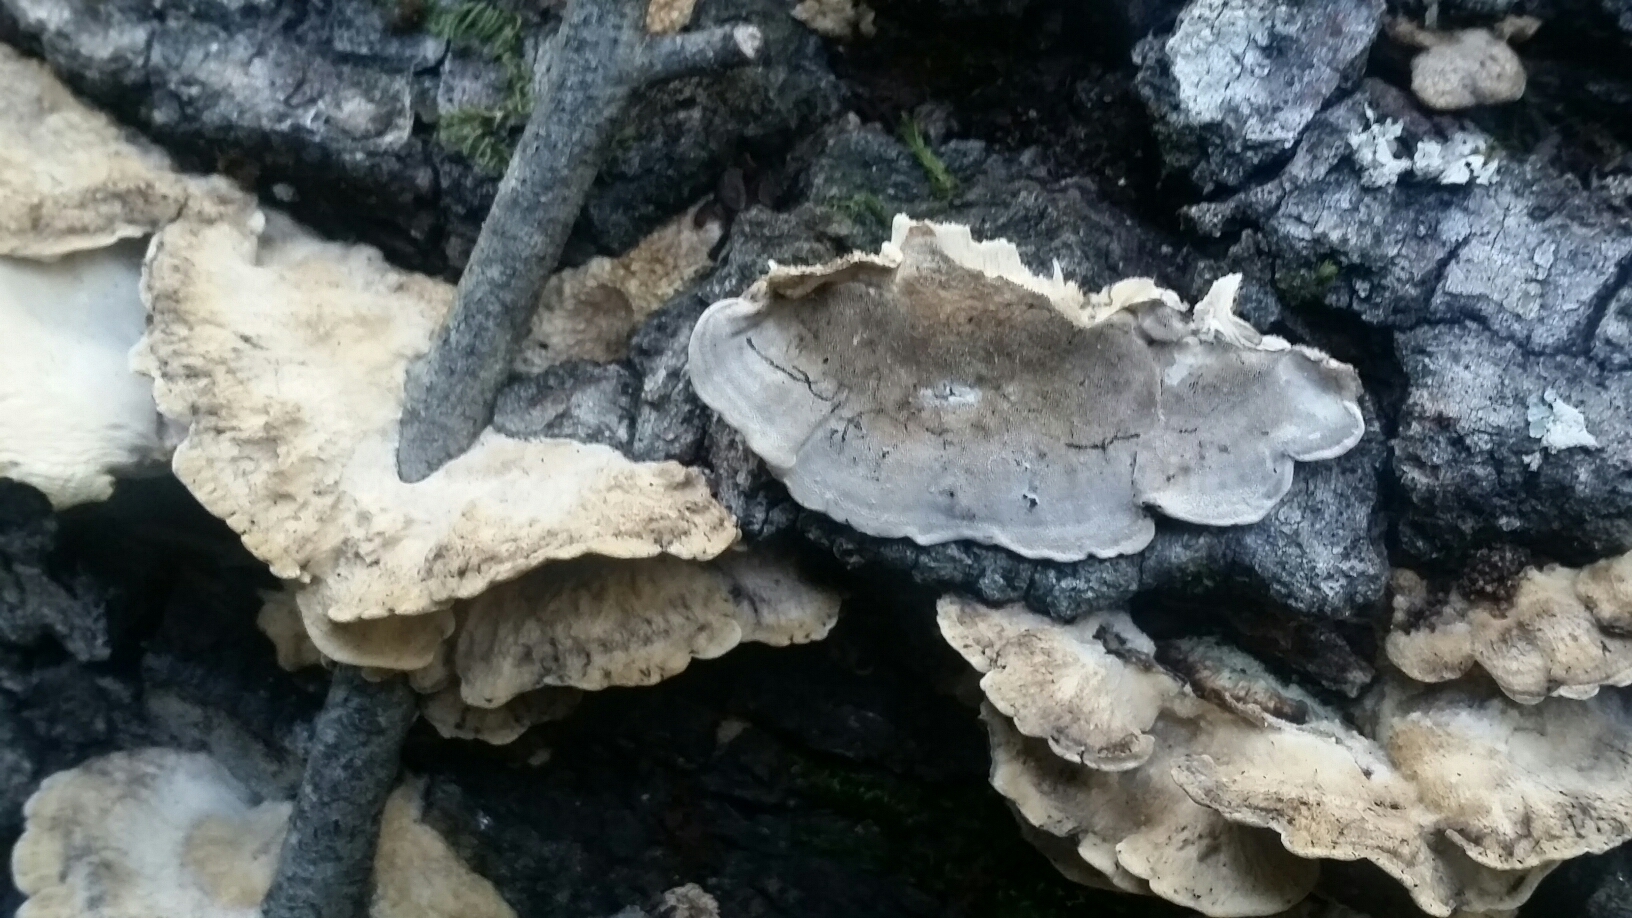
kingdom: Fungi
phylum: Basidiomycota
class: Agaricomycetes
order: Polyporales
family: Phanerochaetaceae
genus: Bjerkandera
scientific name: Bjerkandera adusta
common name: Smoky bracket
